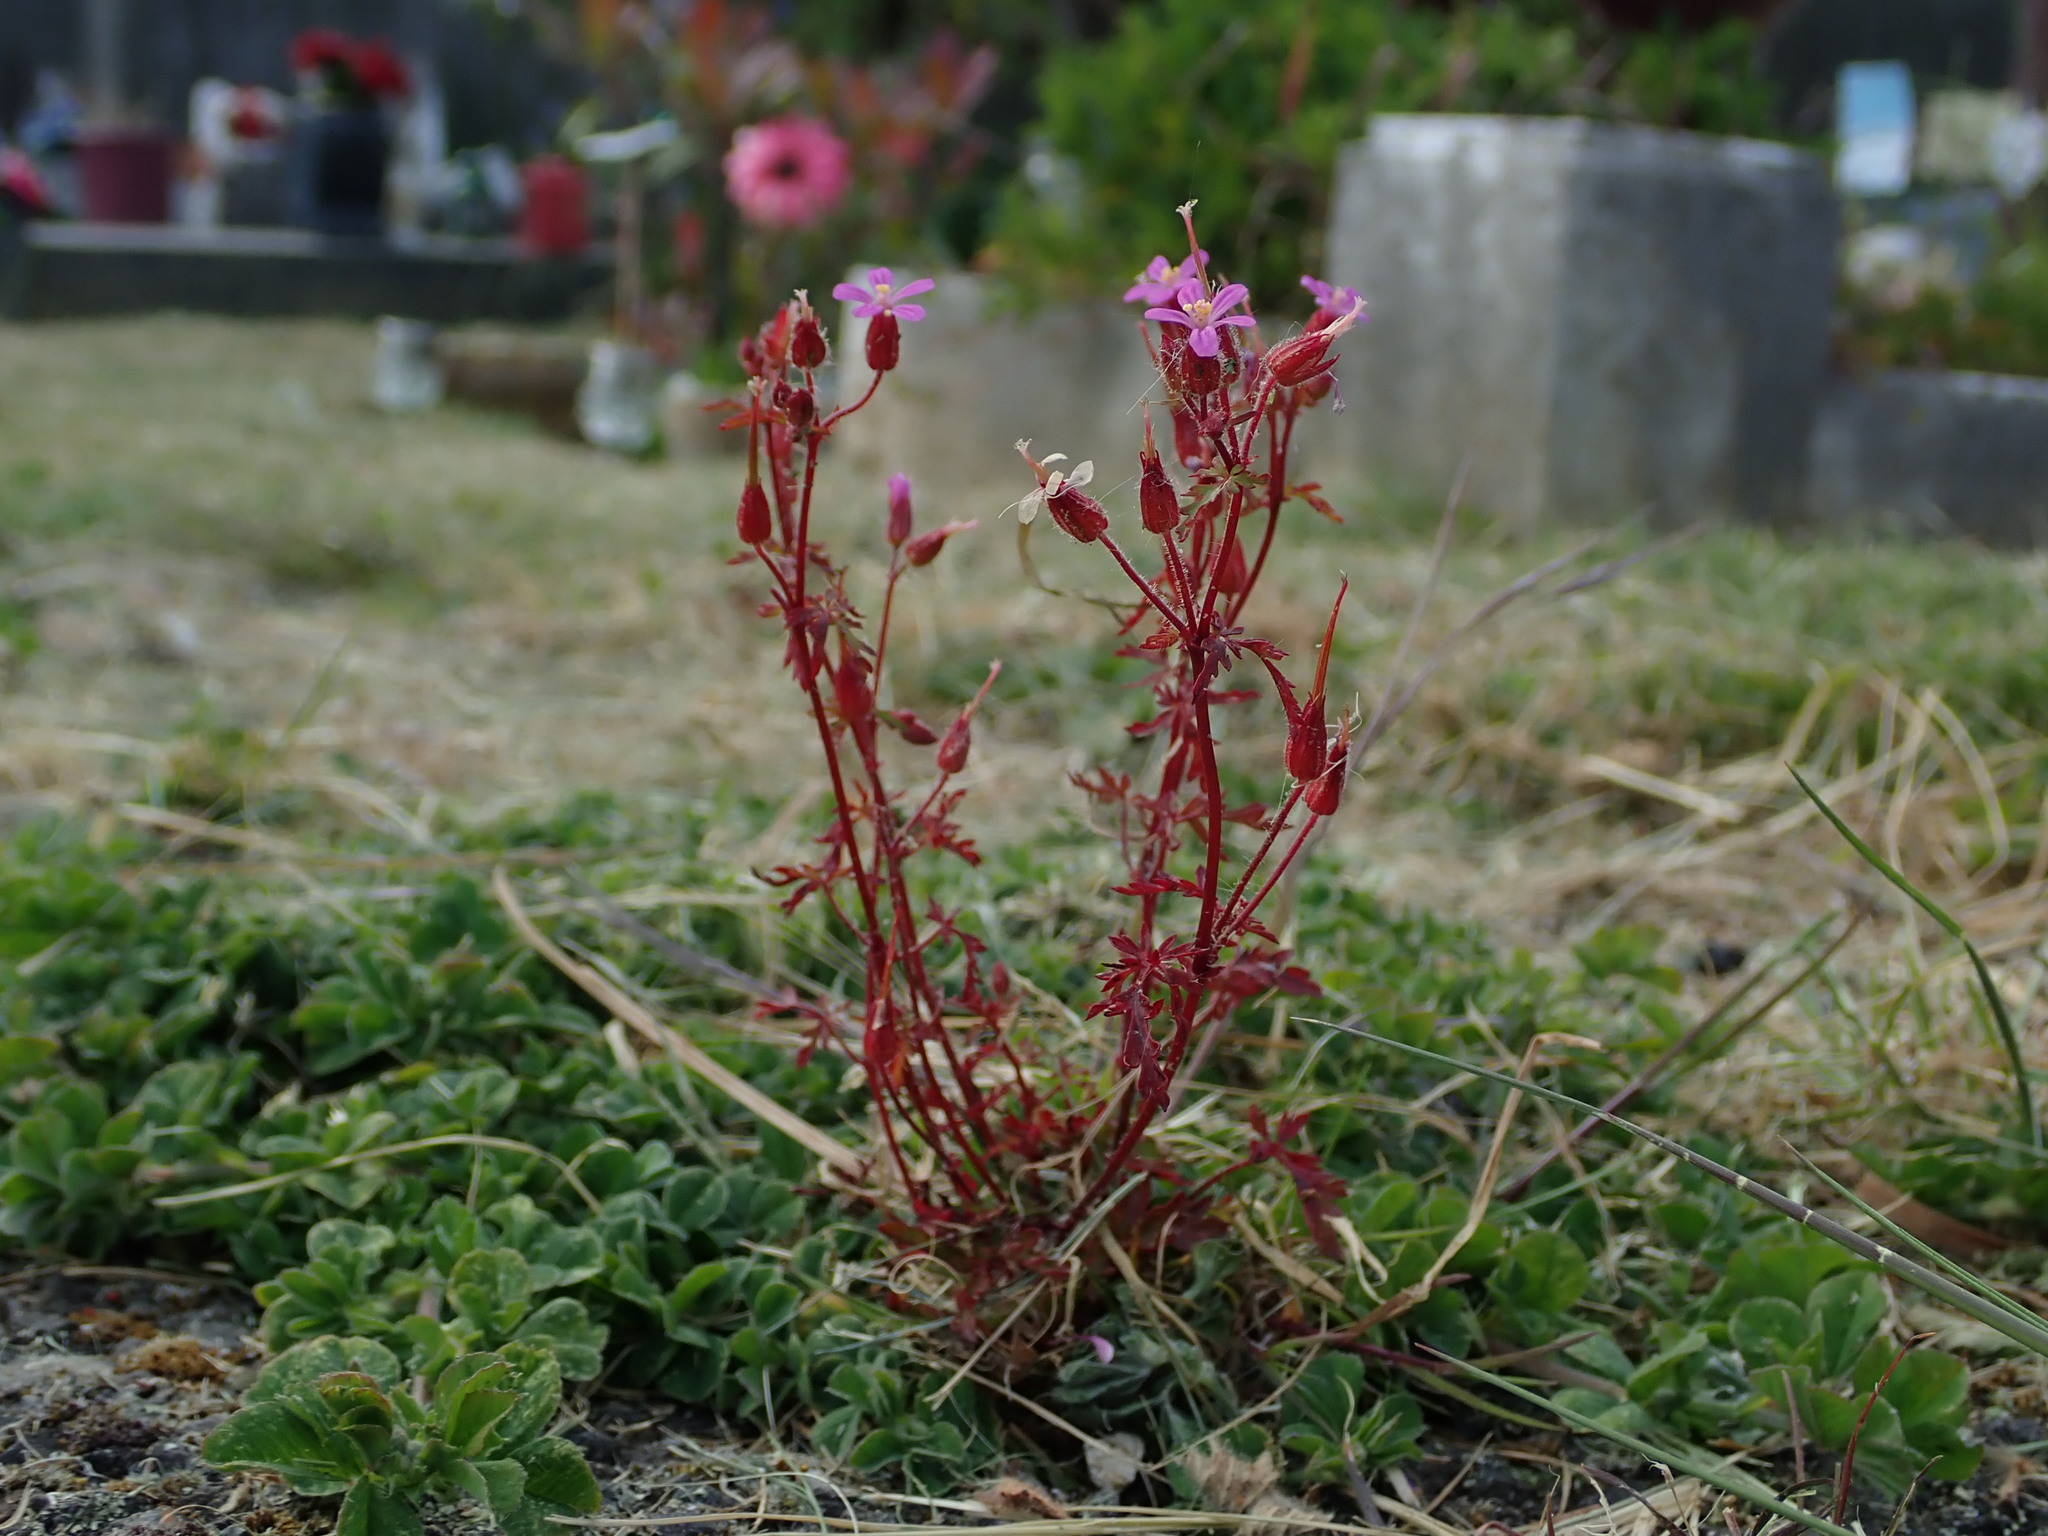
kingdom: Plantae
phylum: Tracheophyta
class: Magnoliopsida
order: Geraniales
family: Geraniaceae
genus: Geranium
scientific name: Geranium purpureum
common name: Little-robin
